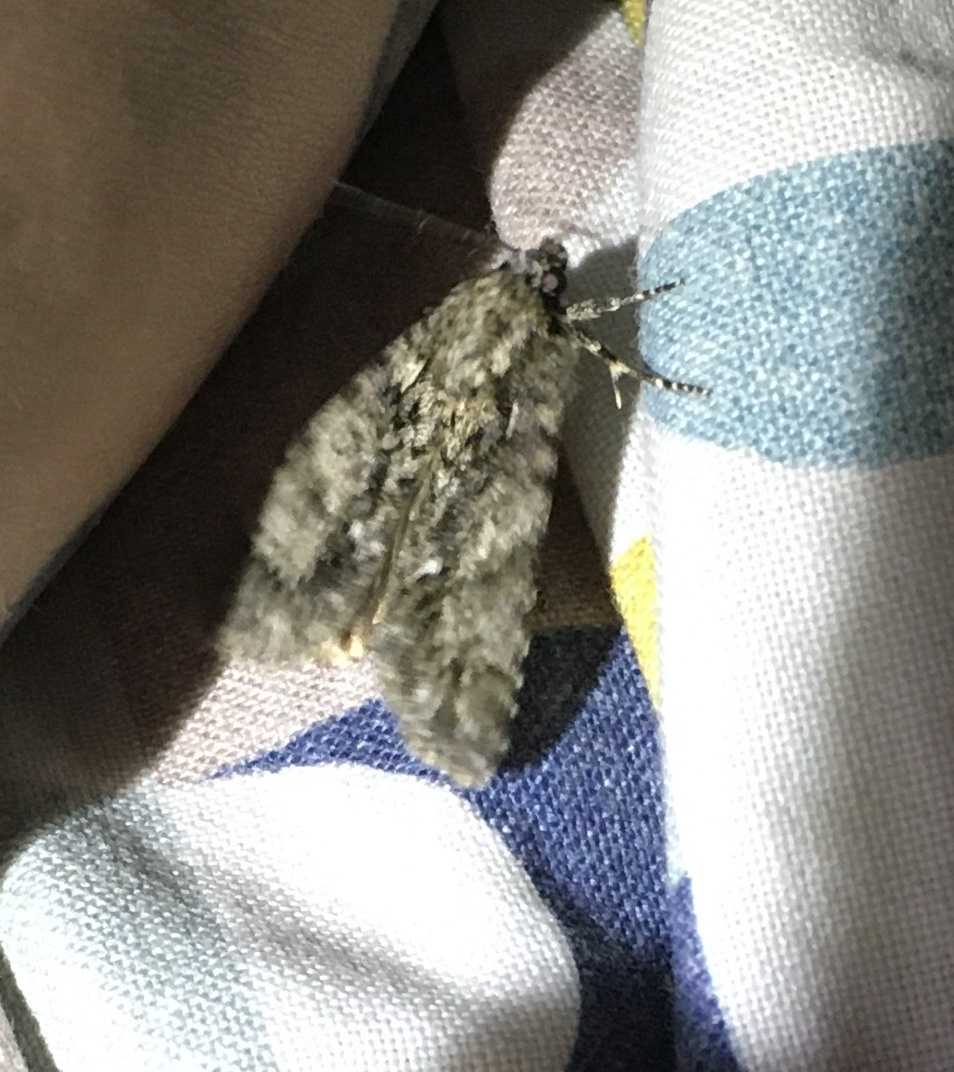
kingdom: Animalia
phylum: Arthropoda
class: Insecta
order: Lepidoptera
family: Noctuidae
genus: Acronicta
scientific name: Acronicta rumicis
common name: Knot grass
